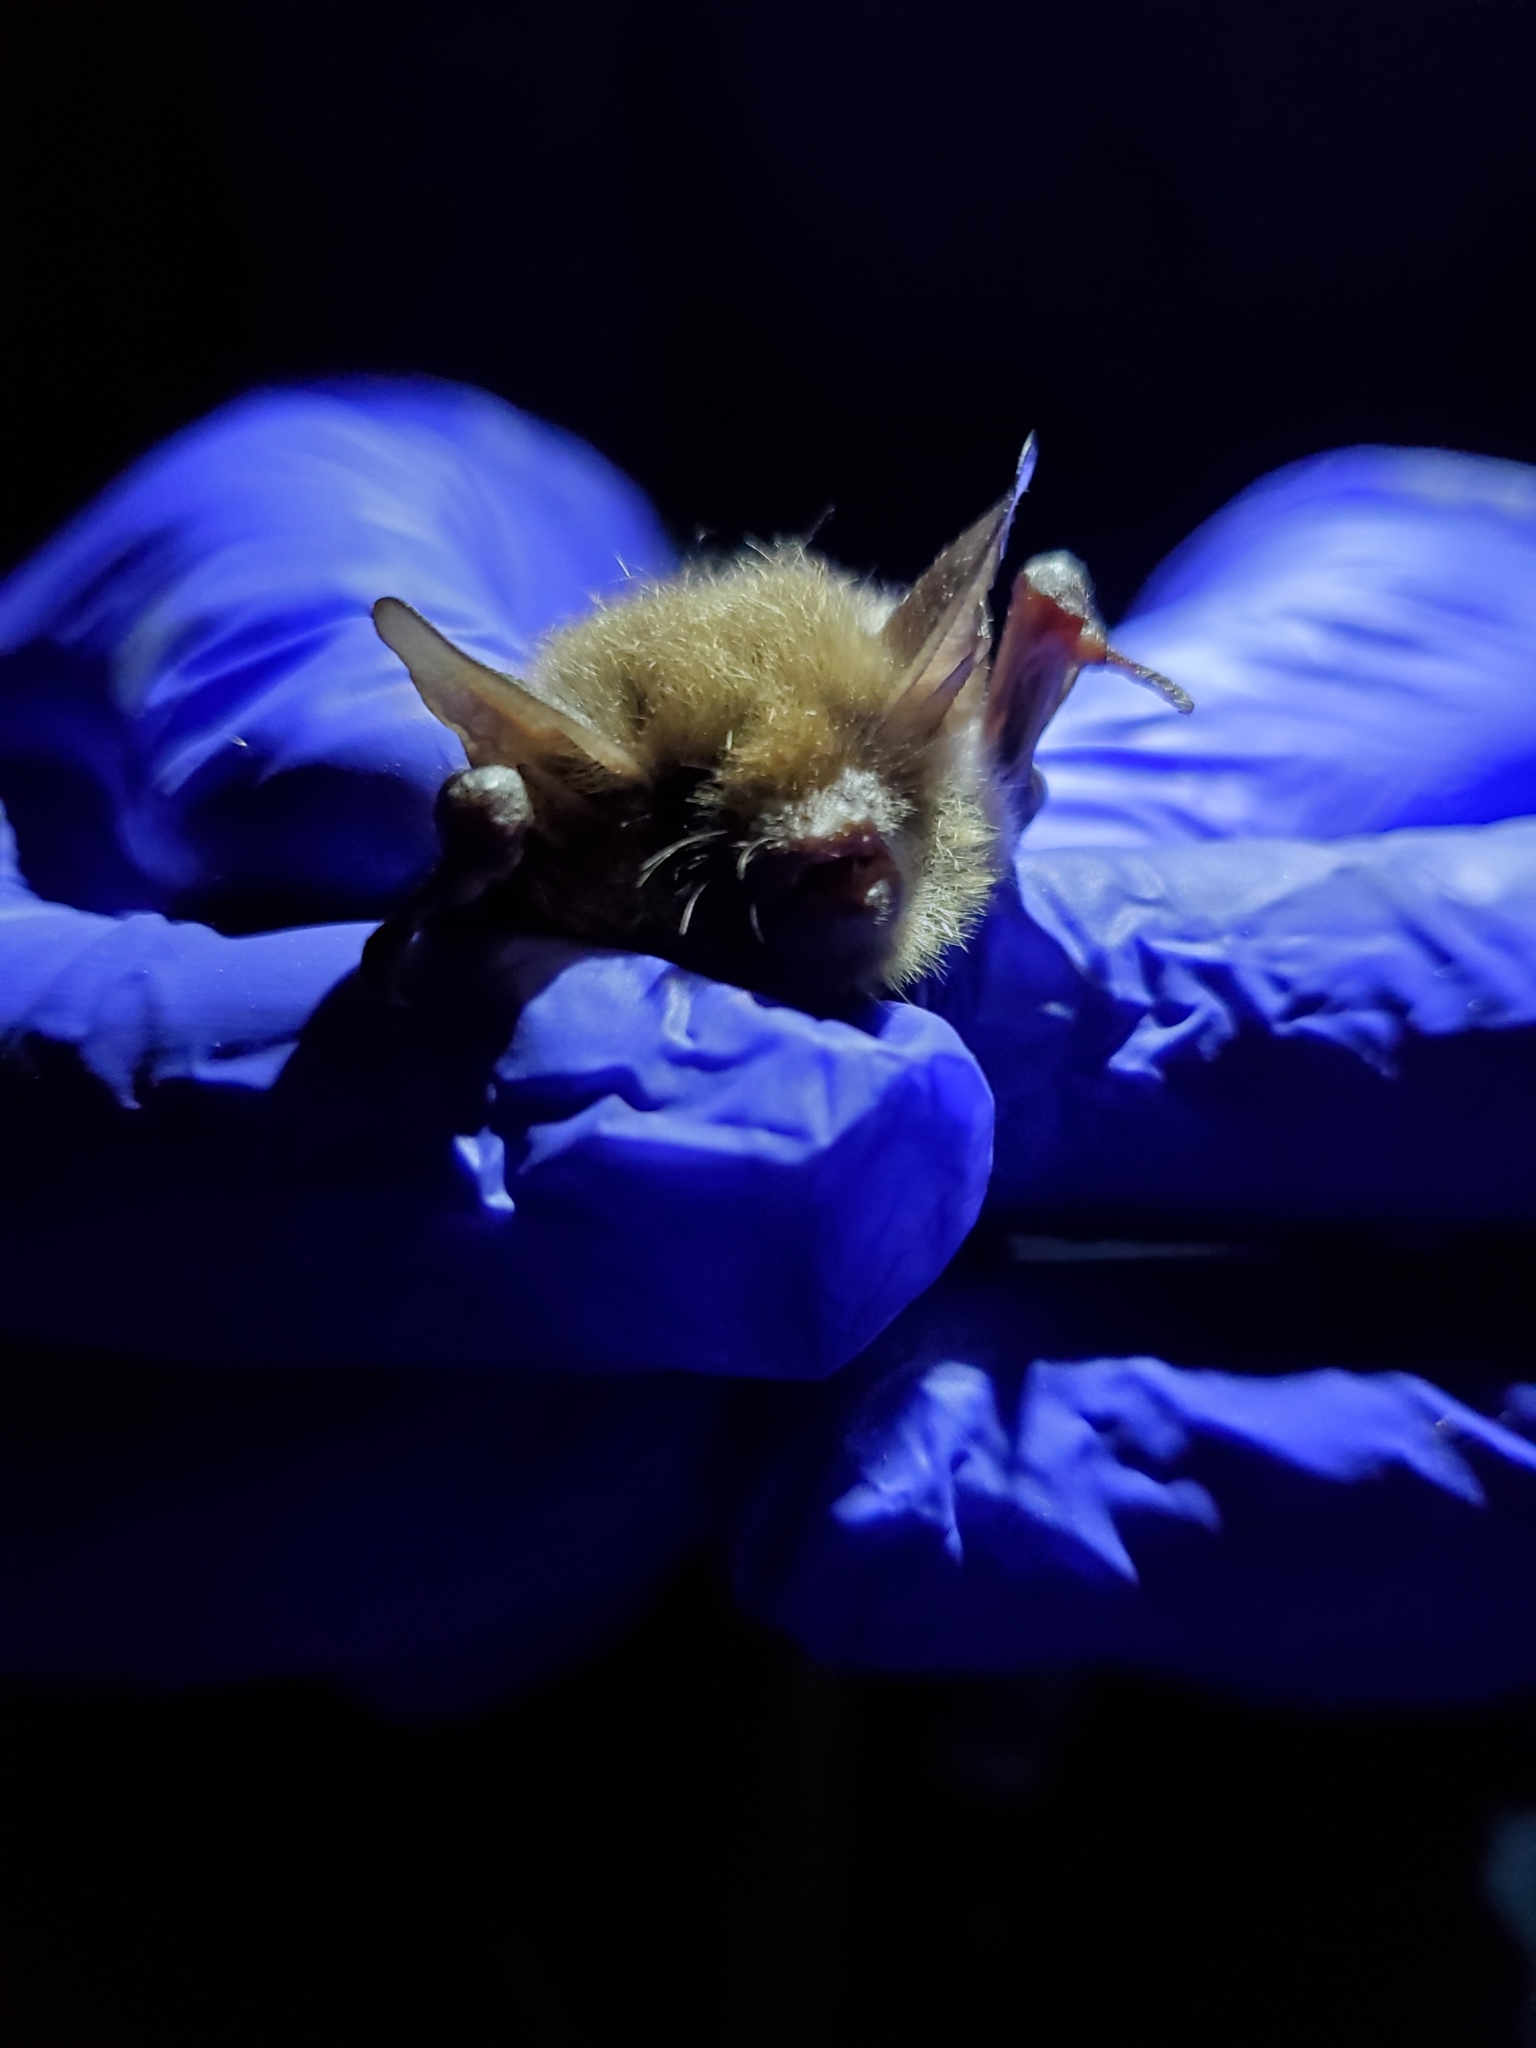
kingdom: Animalia
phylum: Chordata
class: Mammalia
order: Chiroptera
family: Vespertilionidae
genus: Myotis
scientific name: Myotis septentrionalis
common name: Northern myotis
